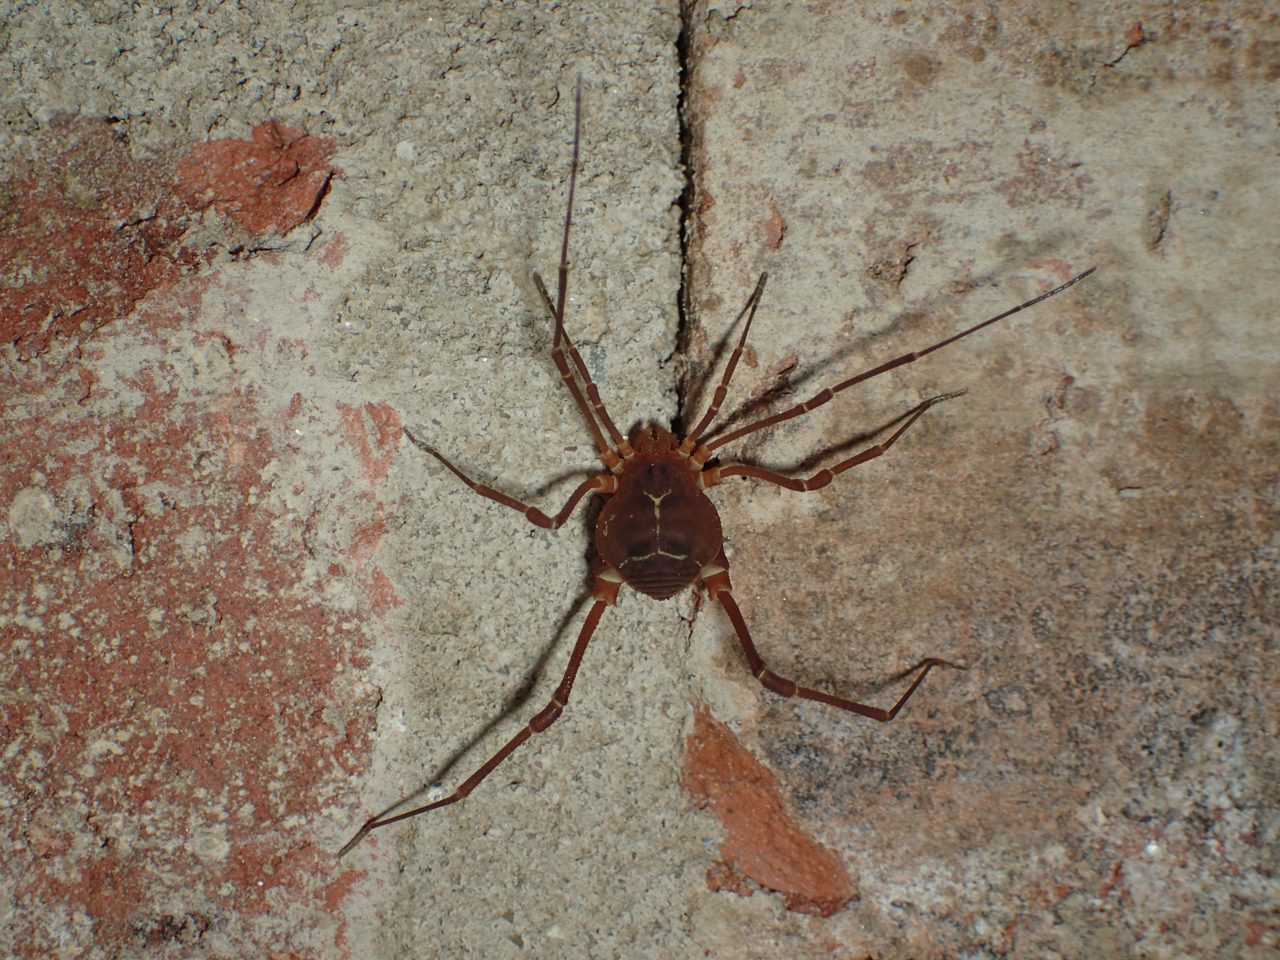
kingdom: Animalia
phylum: Arthropoda
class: Arachnida
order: Opiliones
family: Cosmetidae
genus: Libitioides
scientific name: Libitioides sayi
